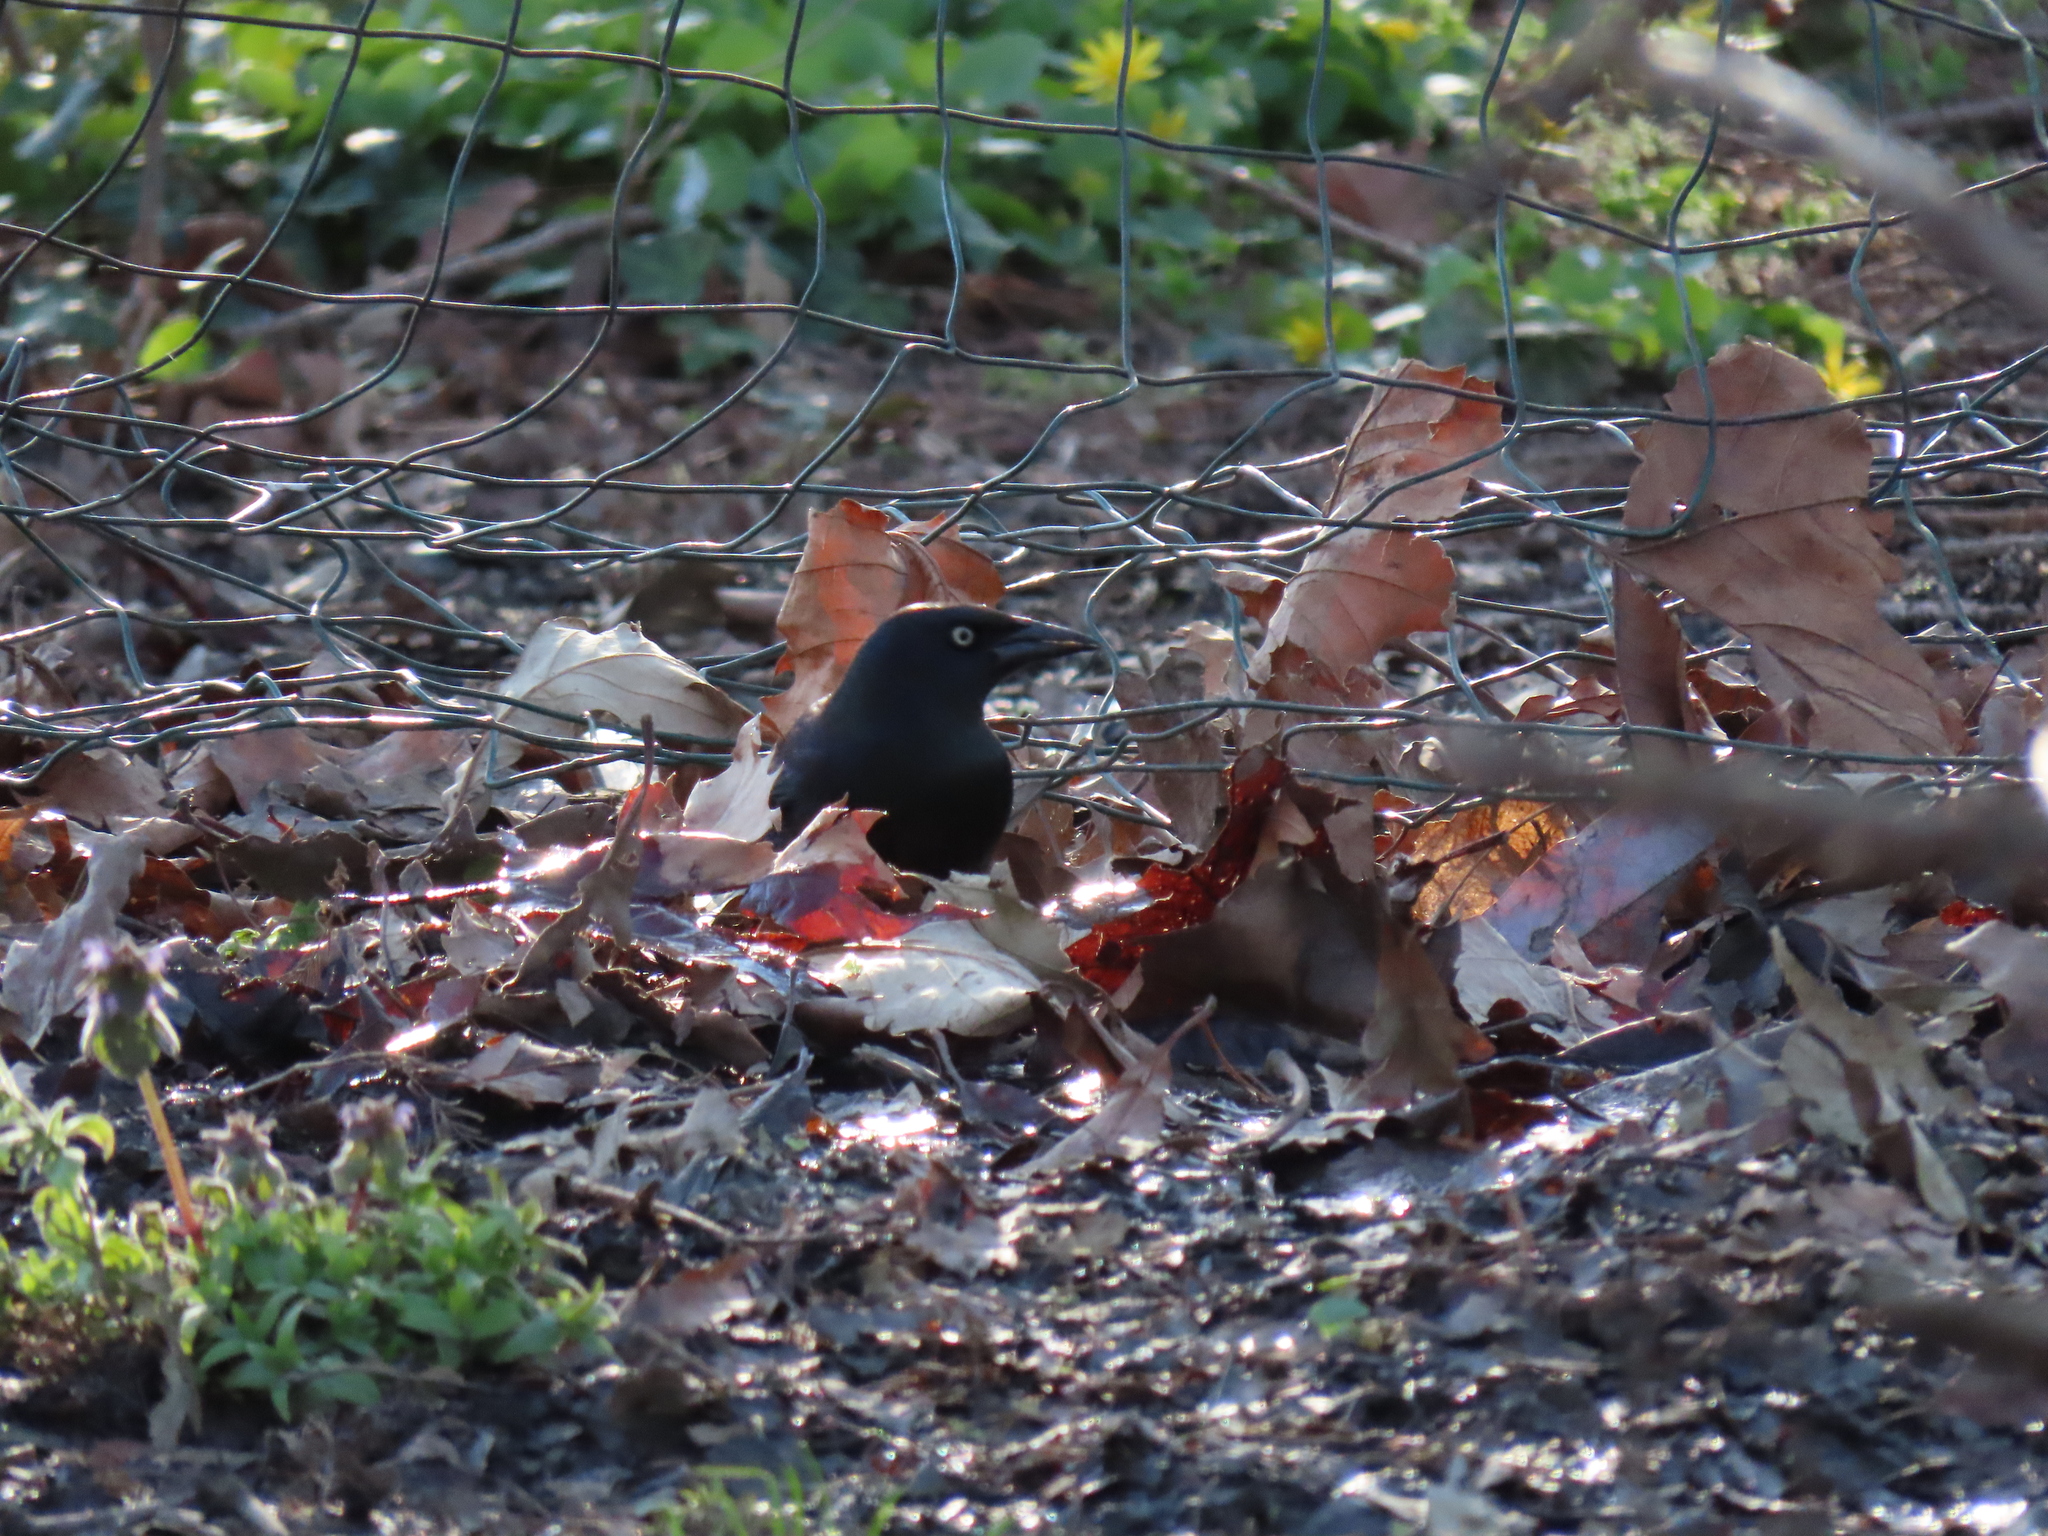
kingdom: Animalia
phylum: Chordata
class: Aves
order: Passeriformes
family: Icteridae
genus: Quiscalus
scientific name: Quiscalus quiscula
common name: Common grackle
